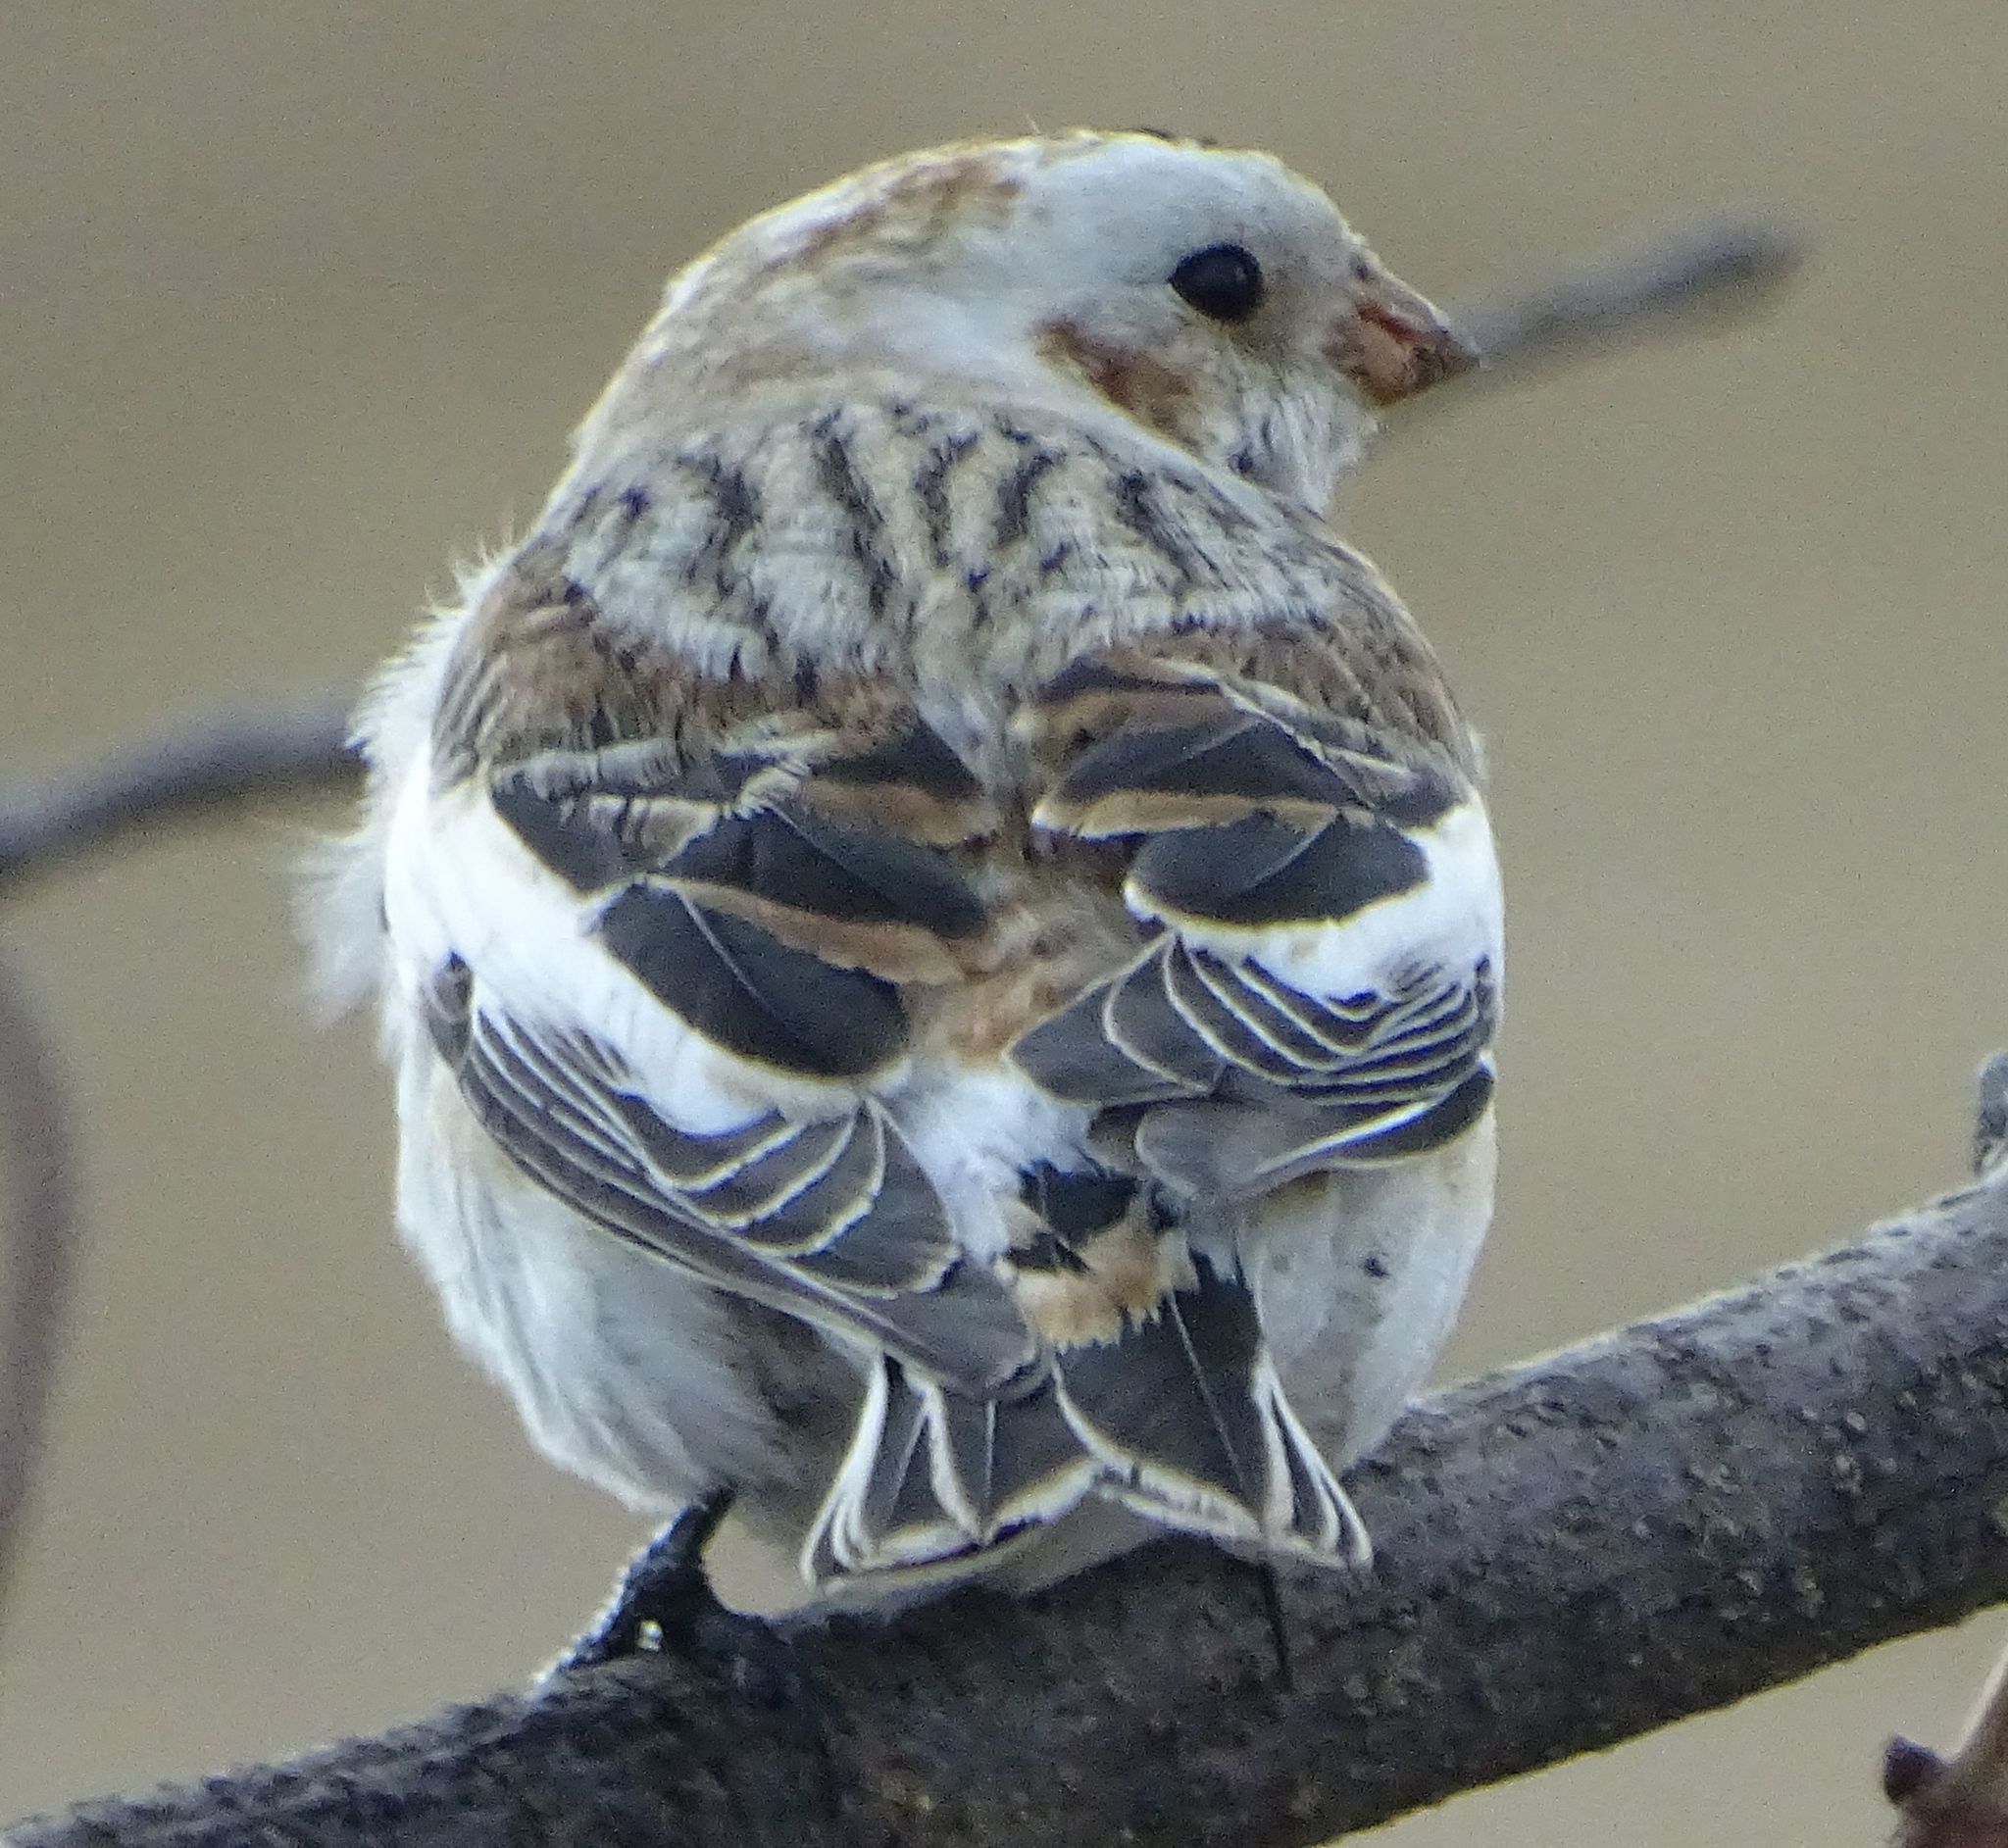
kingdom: Animalia
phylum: Chordata
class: Aves
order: Passeriformes
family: Calcariidae
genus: Plectrophenax
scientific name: Plectrophenax nivalis
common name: Snow bunting
